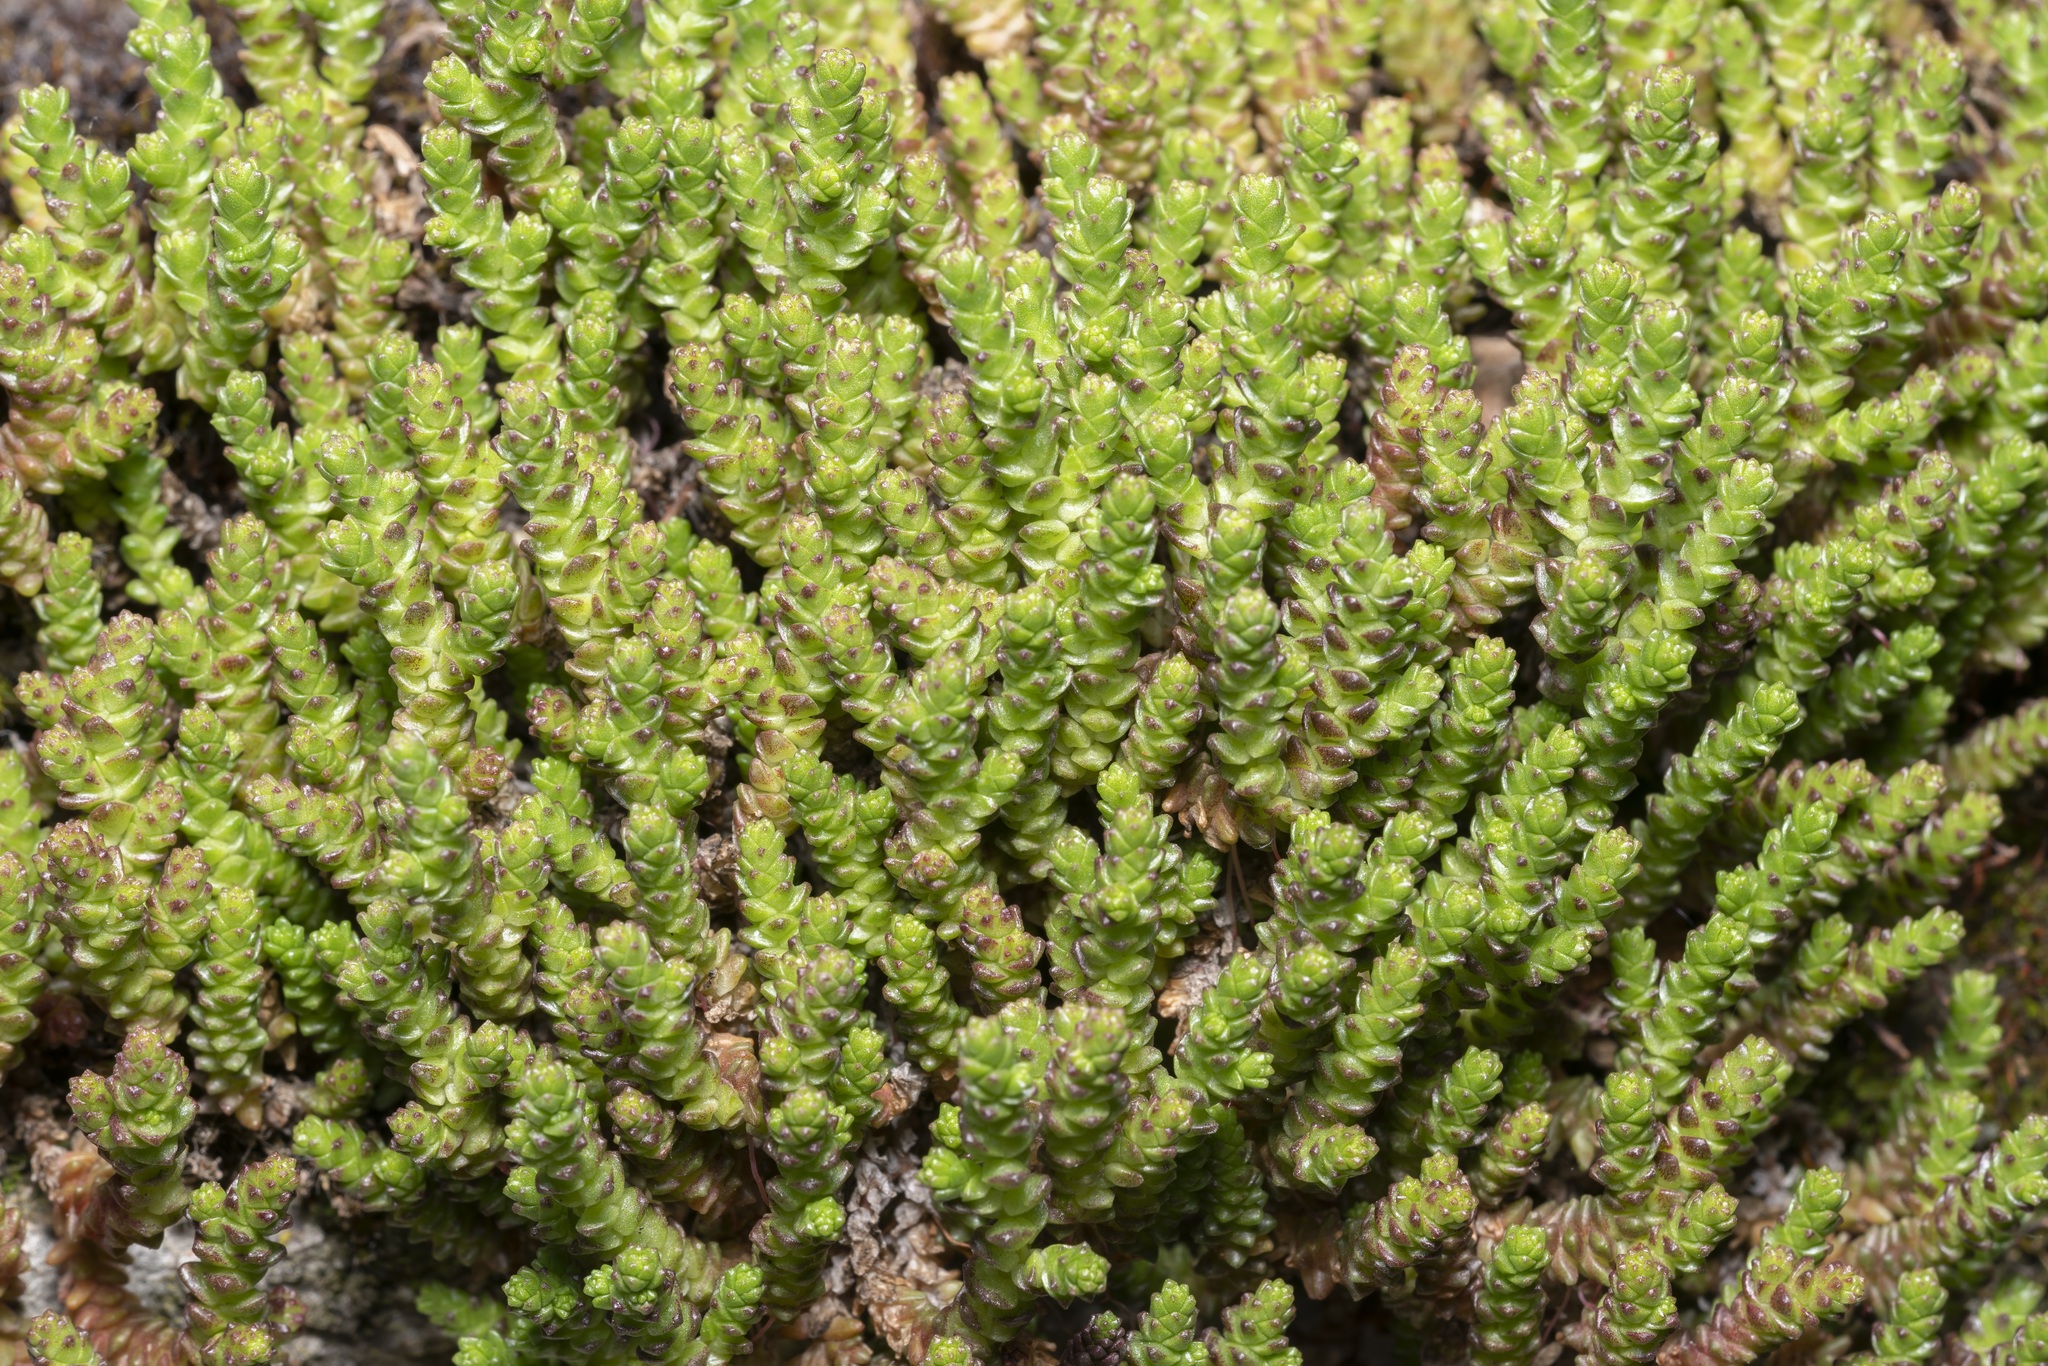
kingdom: Plantae
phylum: Tracheophyta
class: Magnoliopsida
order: Saxifragales
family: Crassulaceae
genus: Sedum
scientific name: Sedum acre
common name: Biting stonecrop
